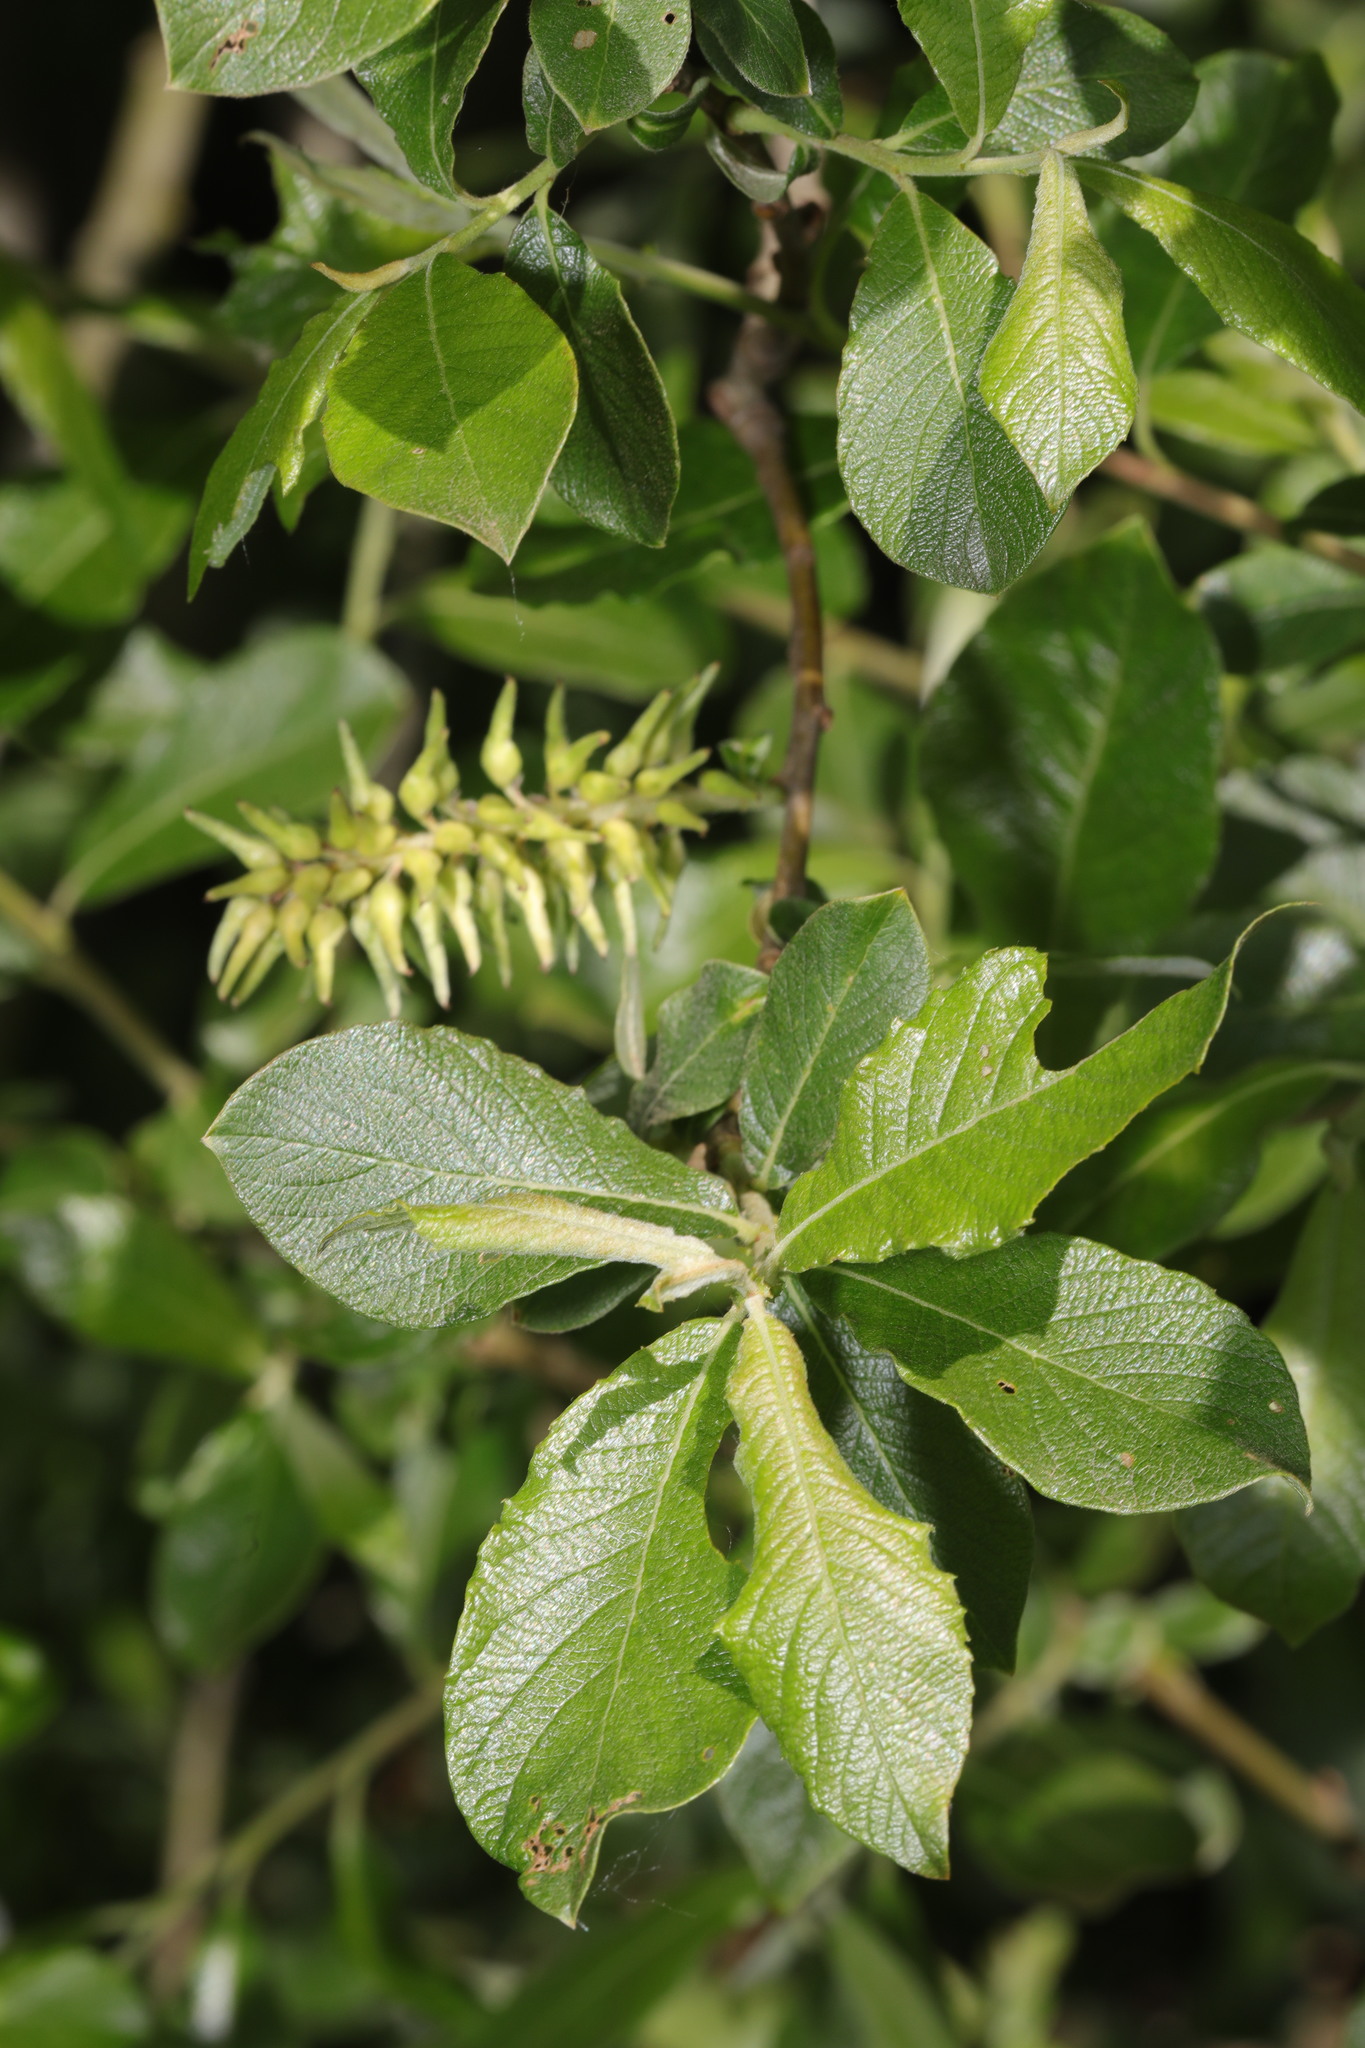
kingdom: Plantae
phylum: Tracheophyta
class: Magnoliopsida
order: Malpighiales
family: Salicaceae
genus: Salix
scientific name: Salix cinerea
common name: Common sallow
